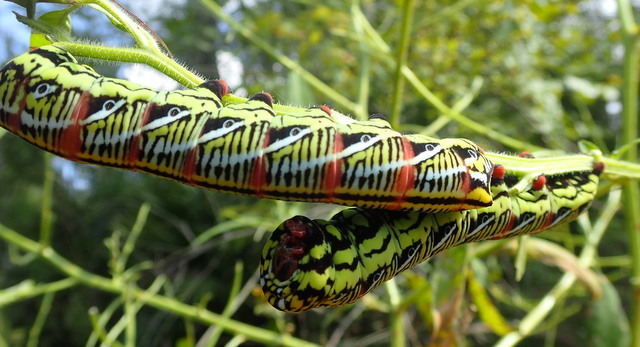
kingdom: Animalia
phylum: Arthropoda
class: Insecta
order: Lepidoptera
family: Sphingidae
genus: Eumorpha
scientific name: Eumorpha fasciatus
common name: Banded sphinx
